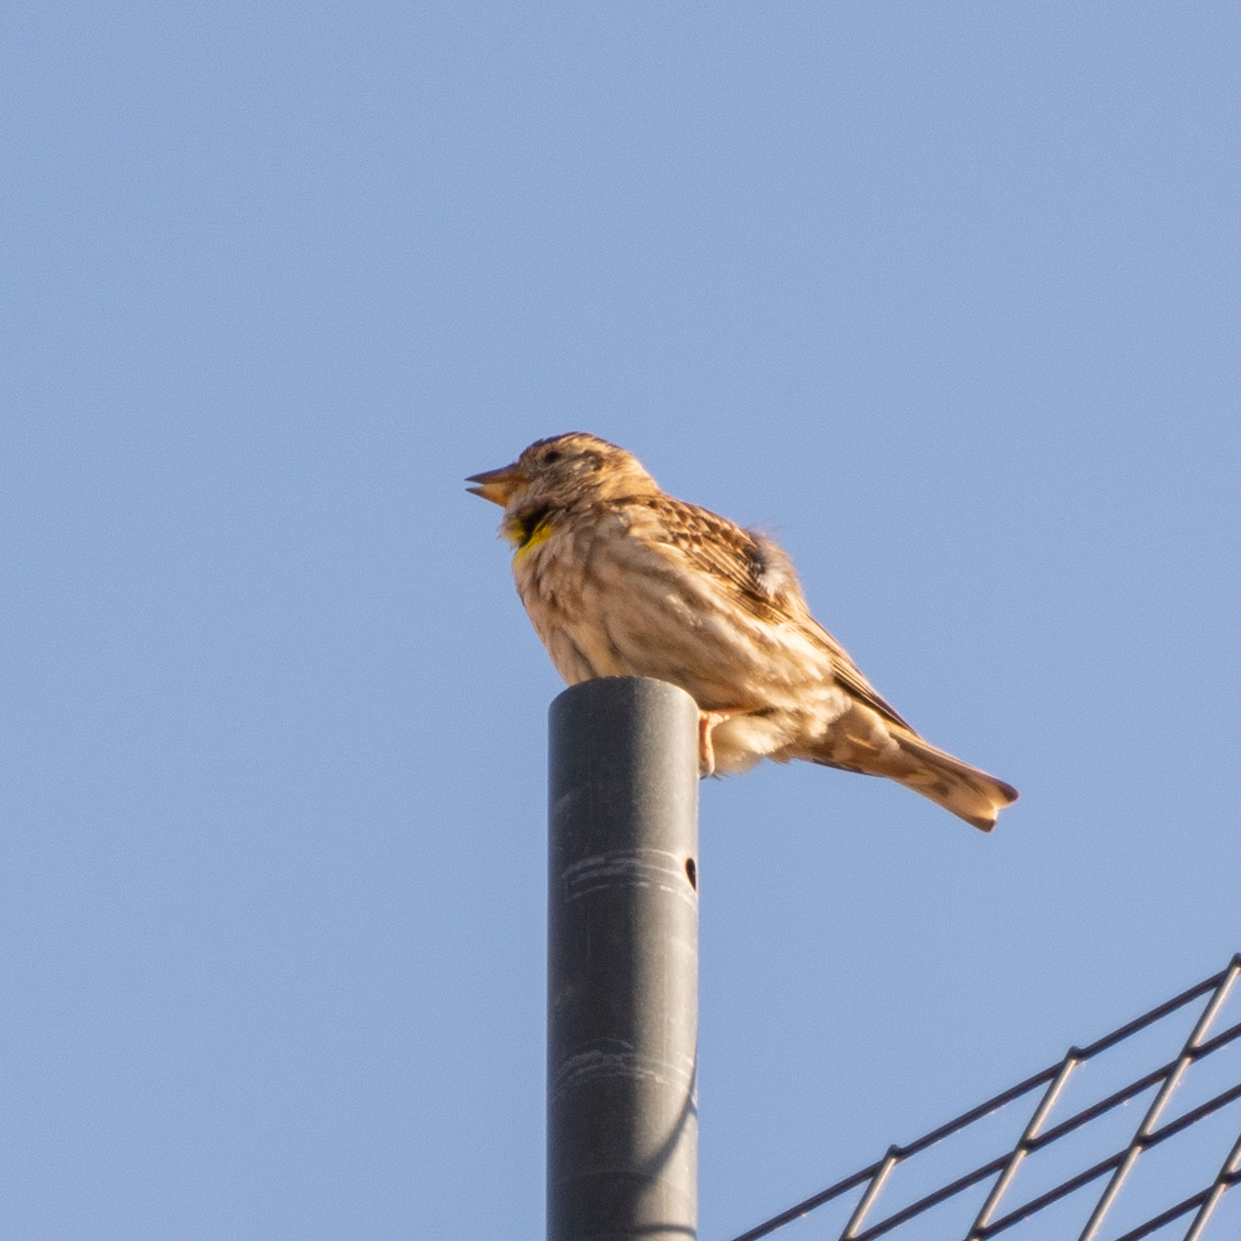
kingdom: Animalia
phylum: Chordata
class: Aves
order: Passeriformes
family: Passeridae
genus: Petronia
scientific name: Petronia petronia
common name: Rock sparrow
